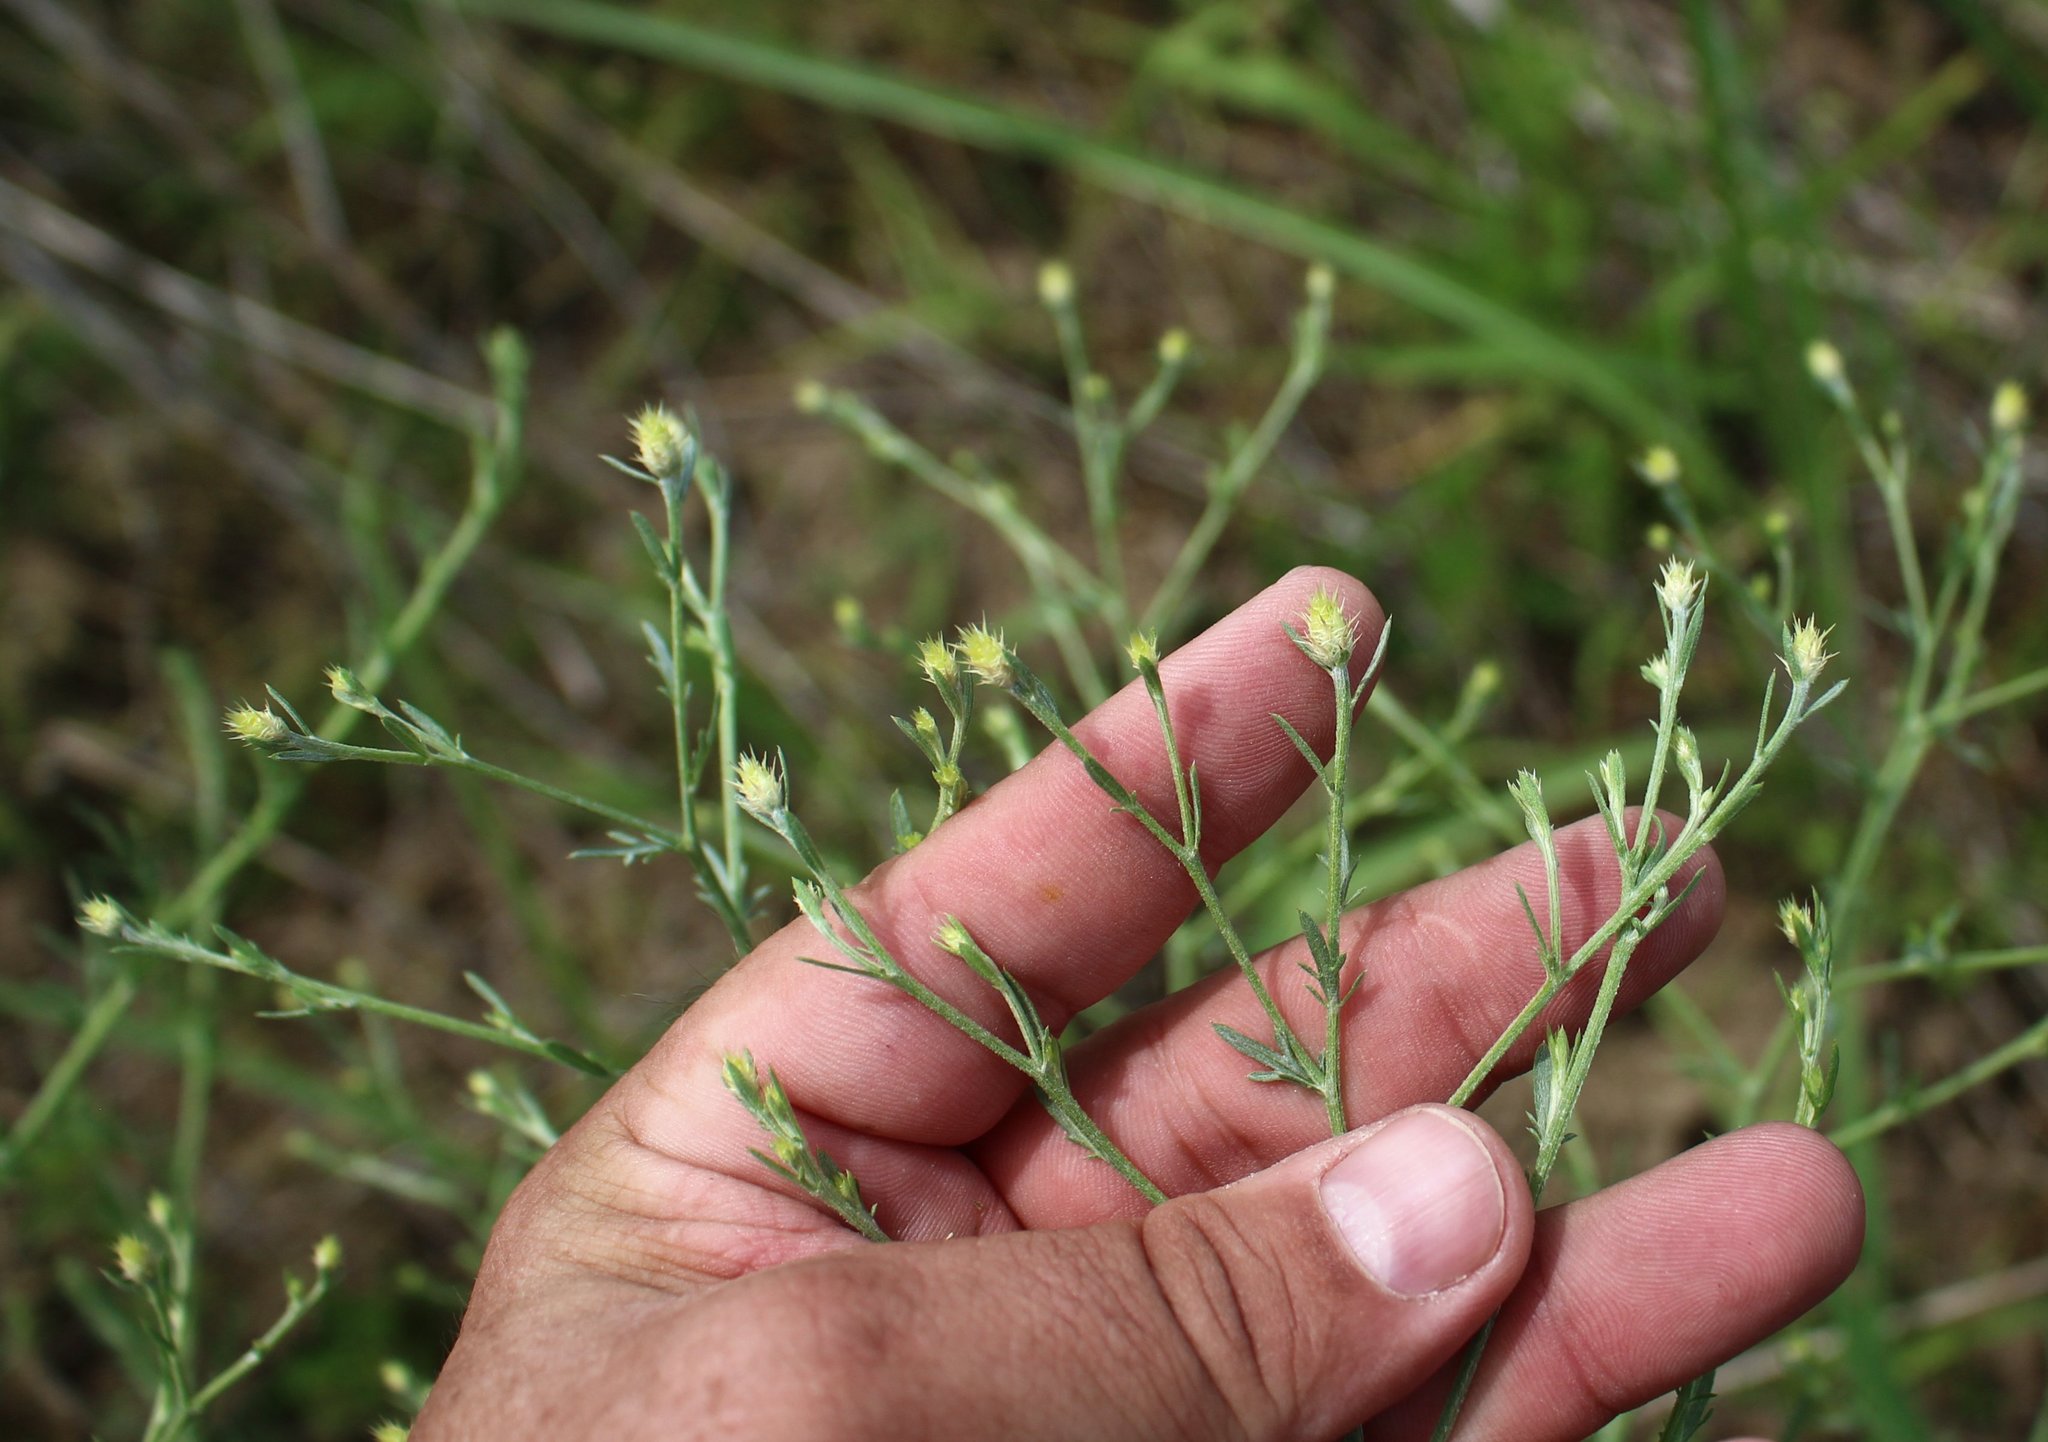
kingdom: Plantae
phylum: Tracheophyta
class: Magnoliopsida
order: Asterales
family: Asteraceae
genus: Centaurea
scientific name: Centaurea diffusa
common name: Diffuse knapweed
